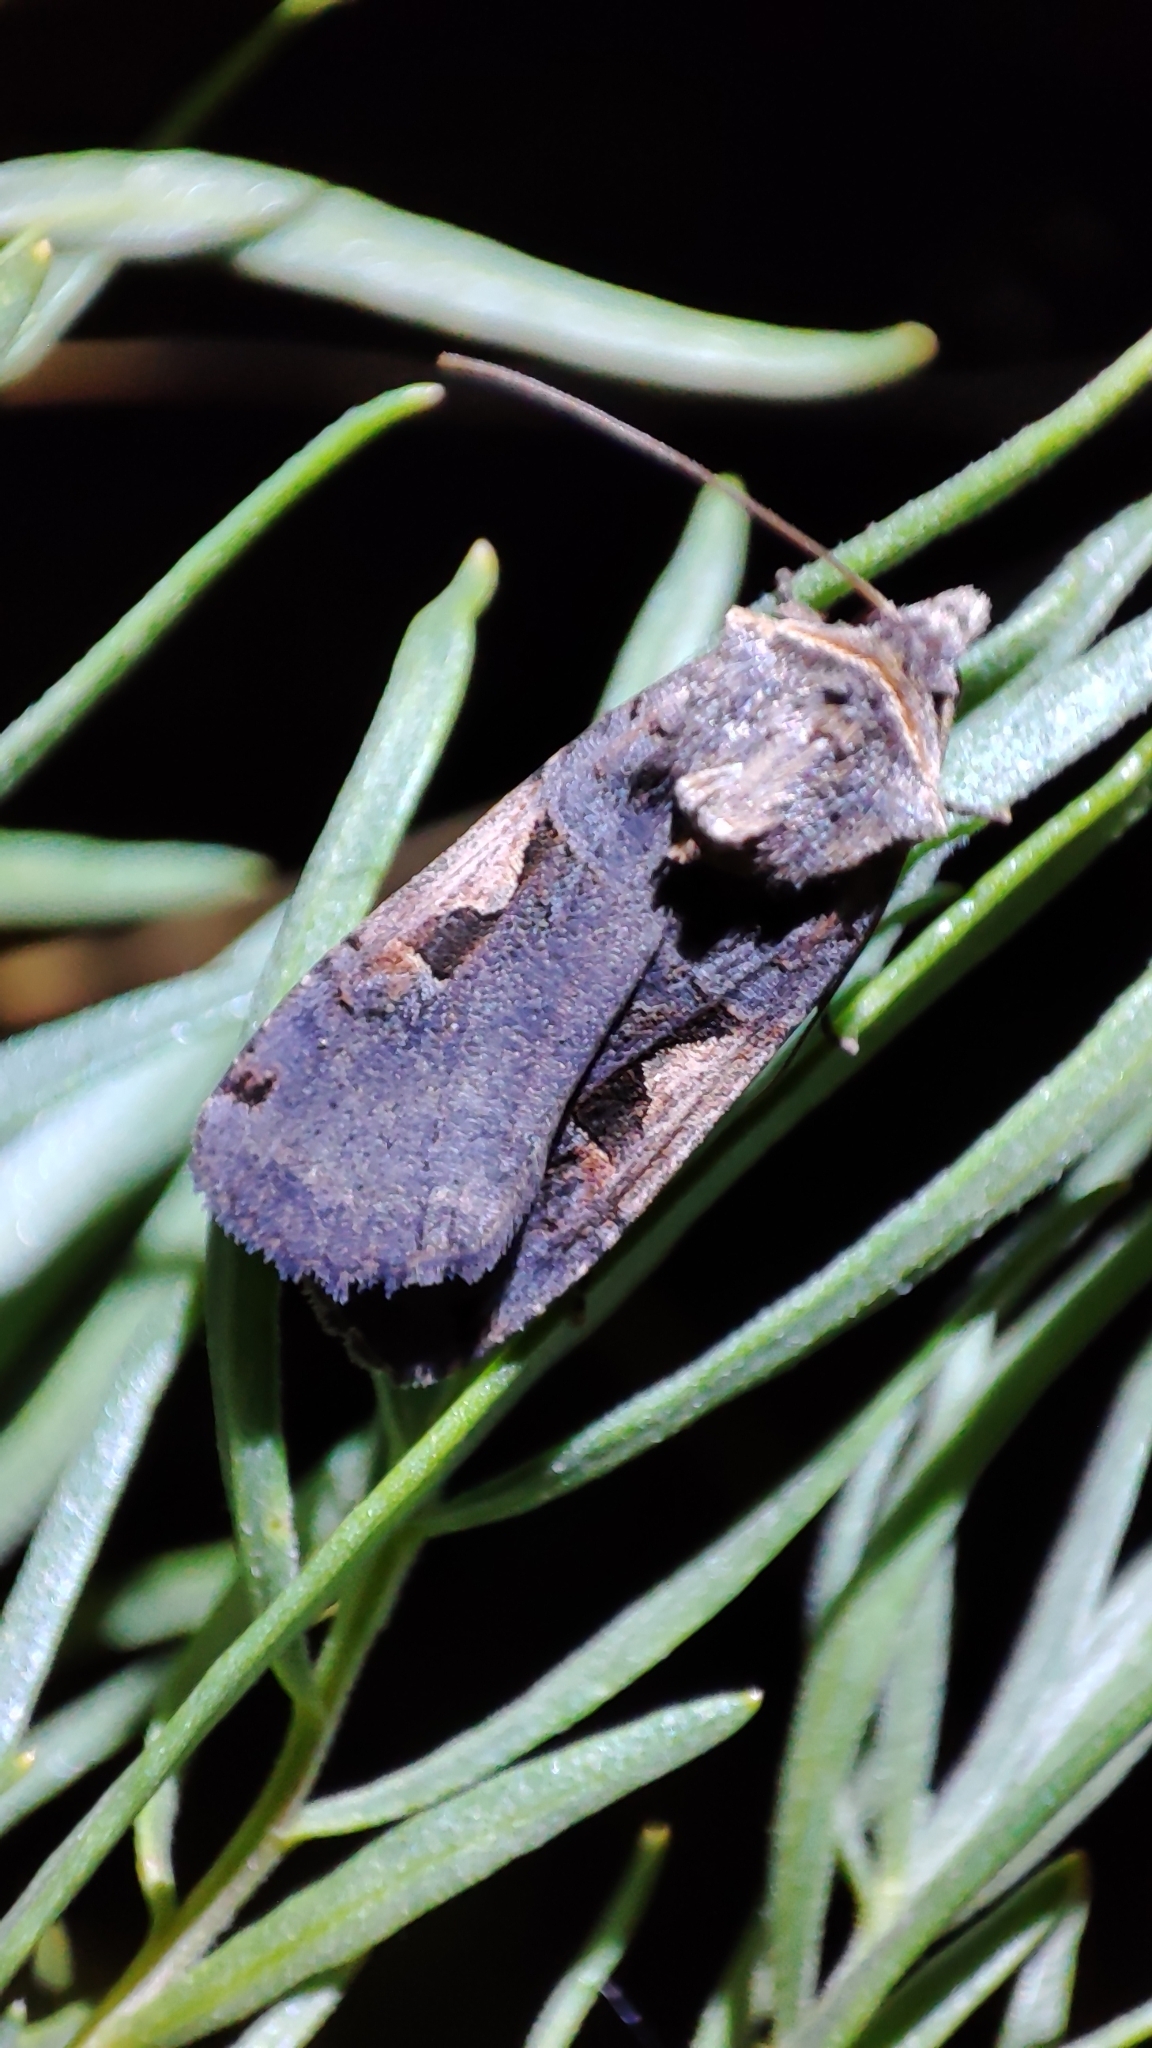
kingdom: Animalia
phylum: Arthropoda
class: Insecta
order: Lepidoptera
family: Noctuidae
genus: Xestia
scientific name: Xestia c-nigrum
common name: Setaceous hebrew character
